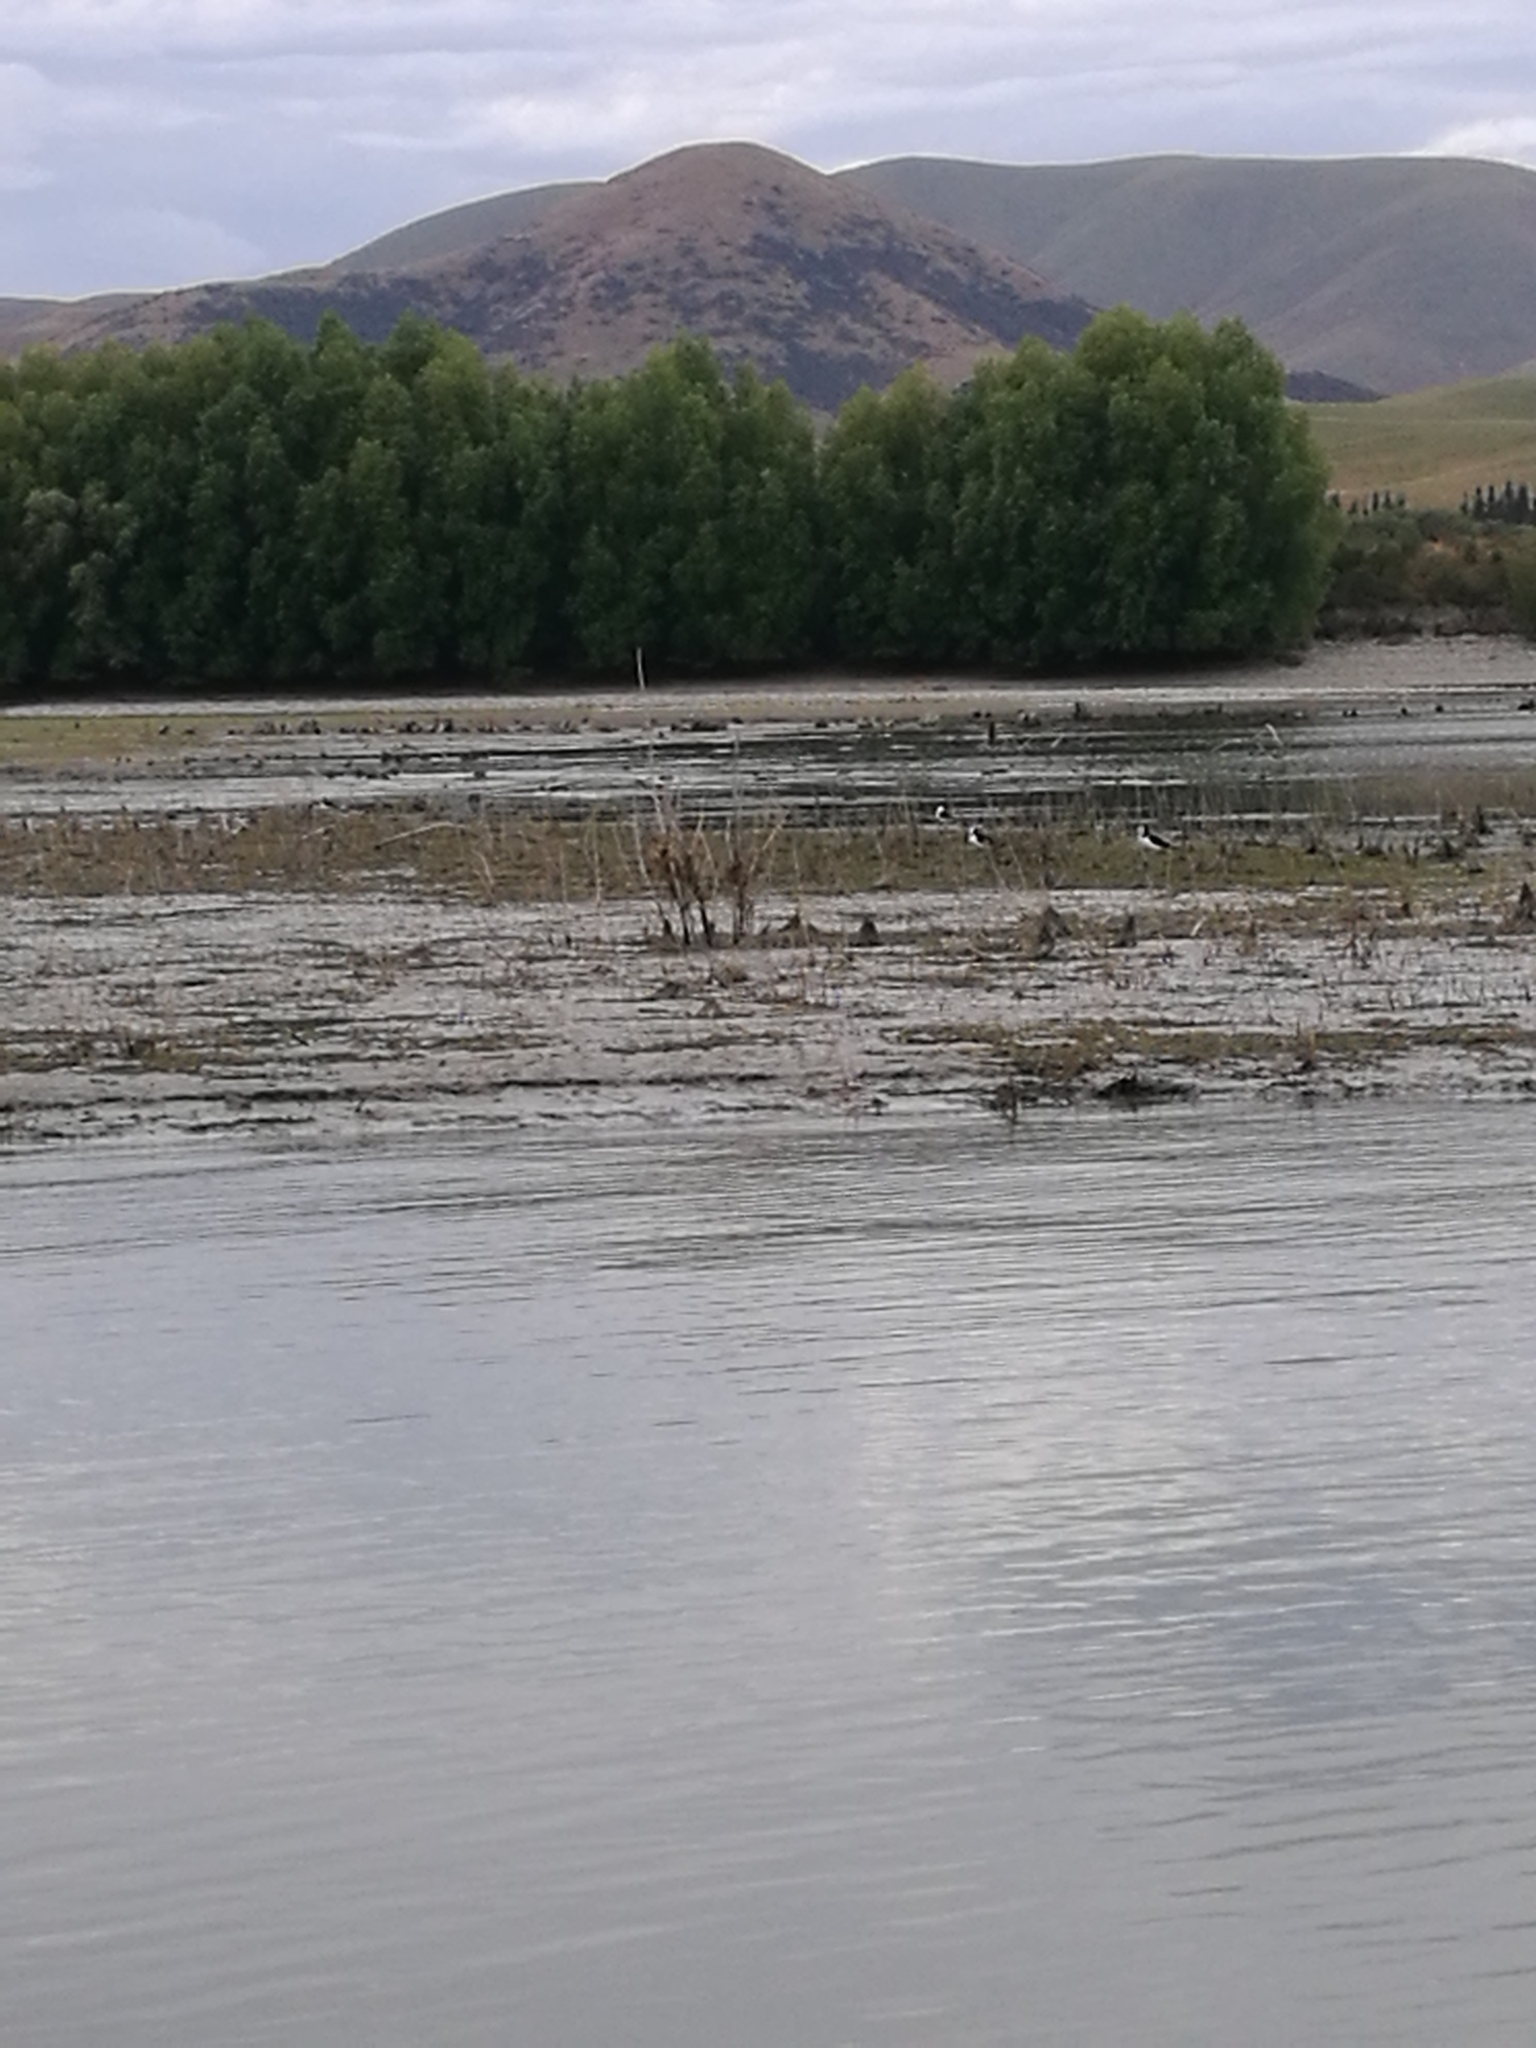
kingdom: Animalia
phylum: Chordata
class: Aves
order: Charadriiformes
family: Recurvirostridae
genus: Himantopus
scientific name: Himantopus leucocephalus
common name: White-headed stilt
